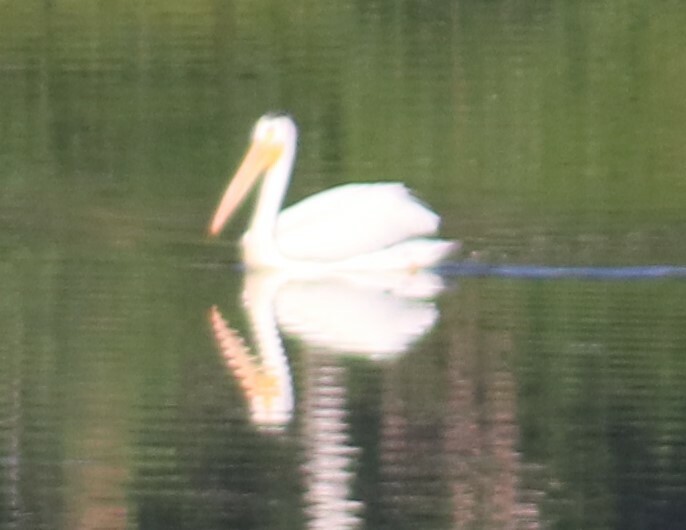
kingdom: Animalia
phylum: Chordata
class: Aves
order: Pelecaniformes
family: Pelecanidae
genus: Pelecanus
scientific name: Pelecanus erythrorhynchos
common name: American white pelican
